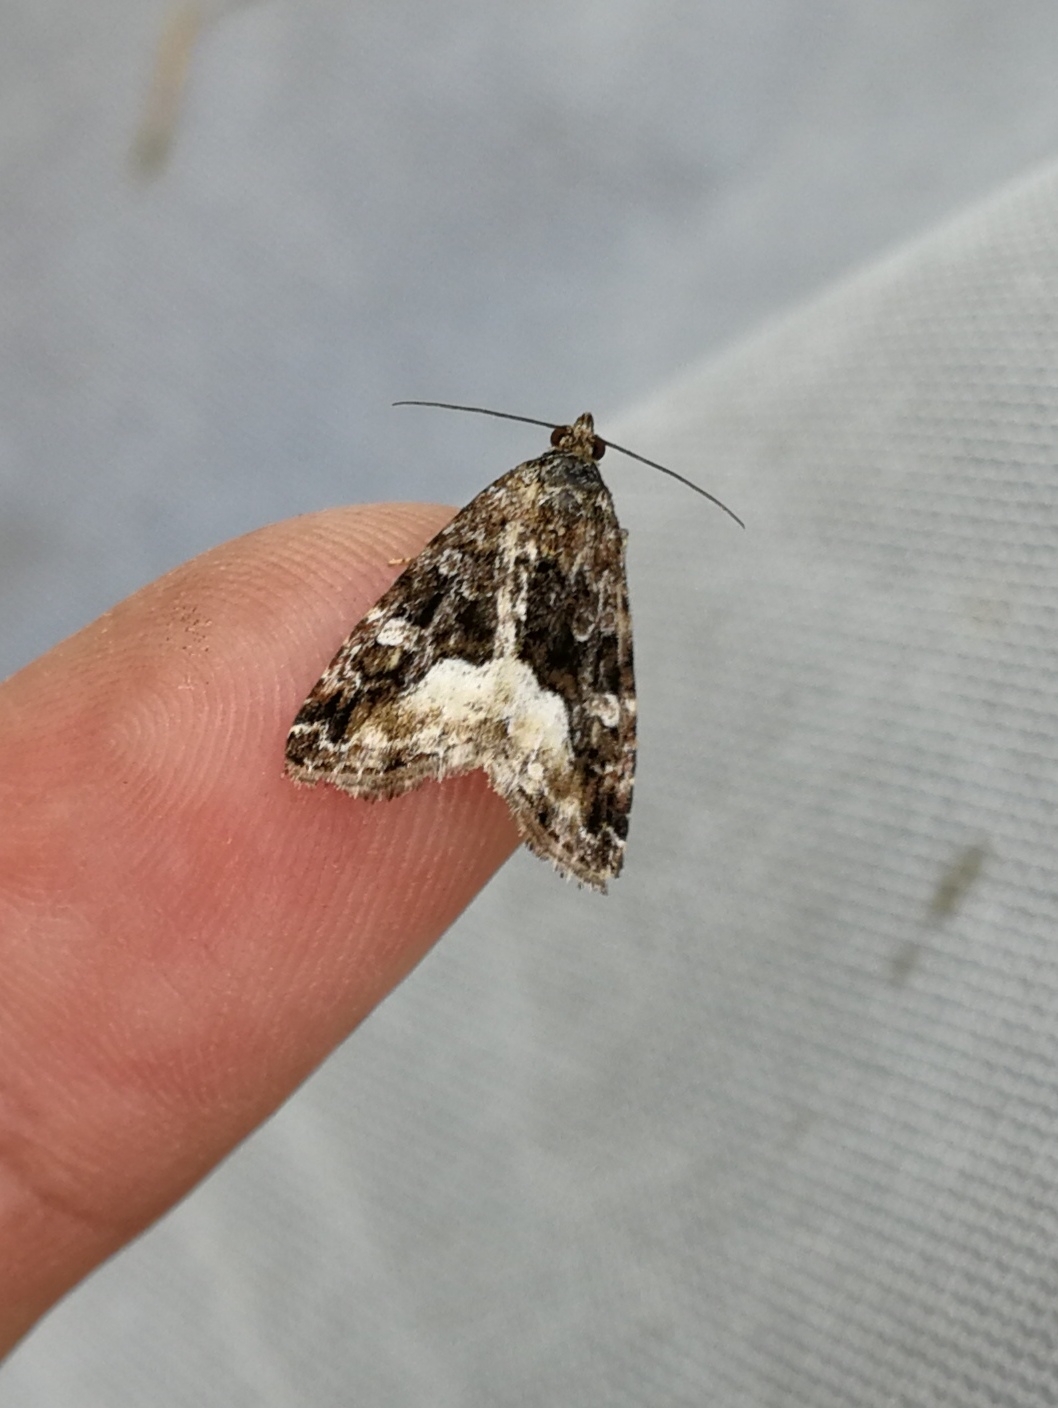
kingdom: Animalia
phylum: Arthropoda
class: Insecta
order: Lepidoptera
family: Noctuidae
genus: Deltote
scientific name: Deltote pygarga
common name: Marbled white spot
